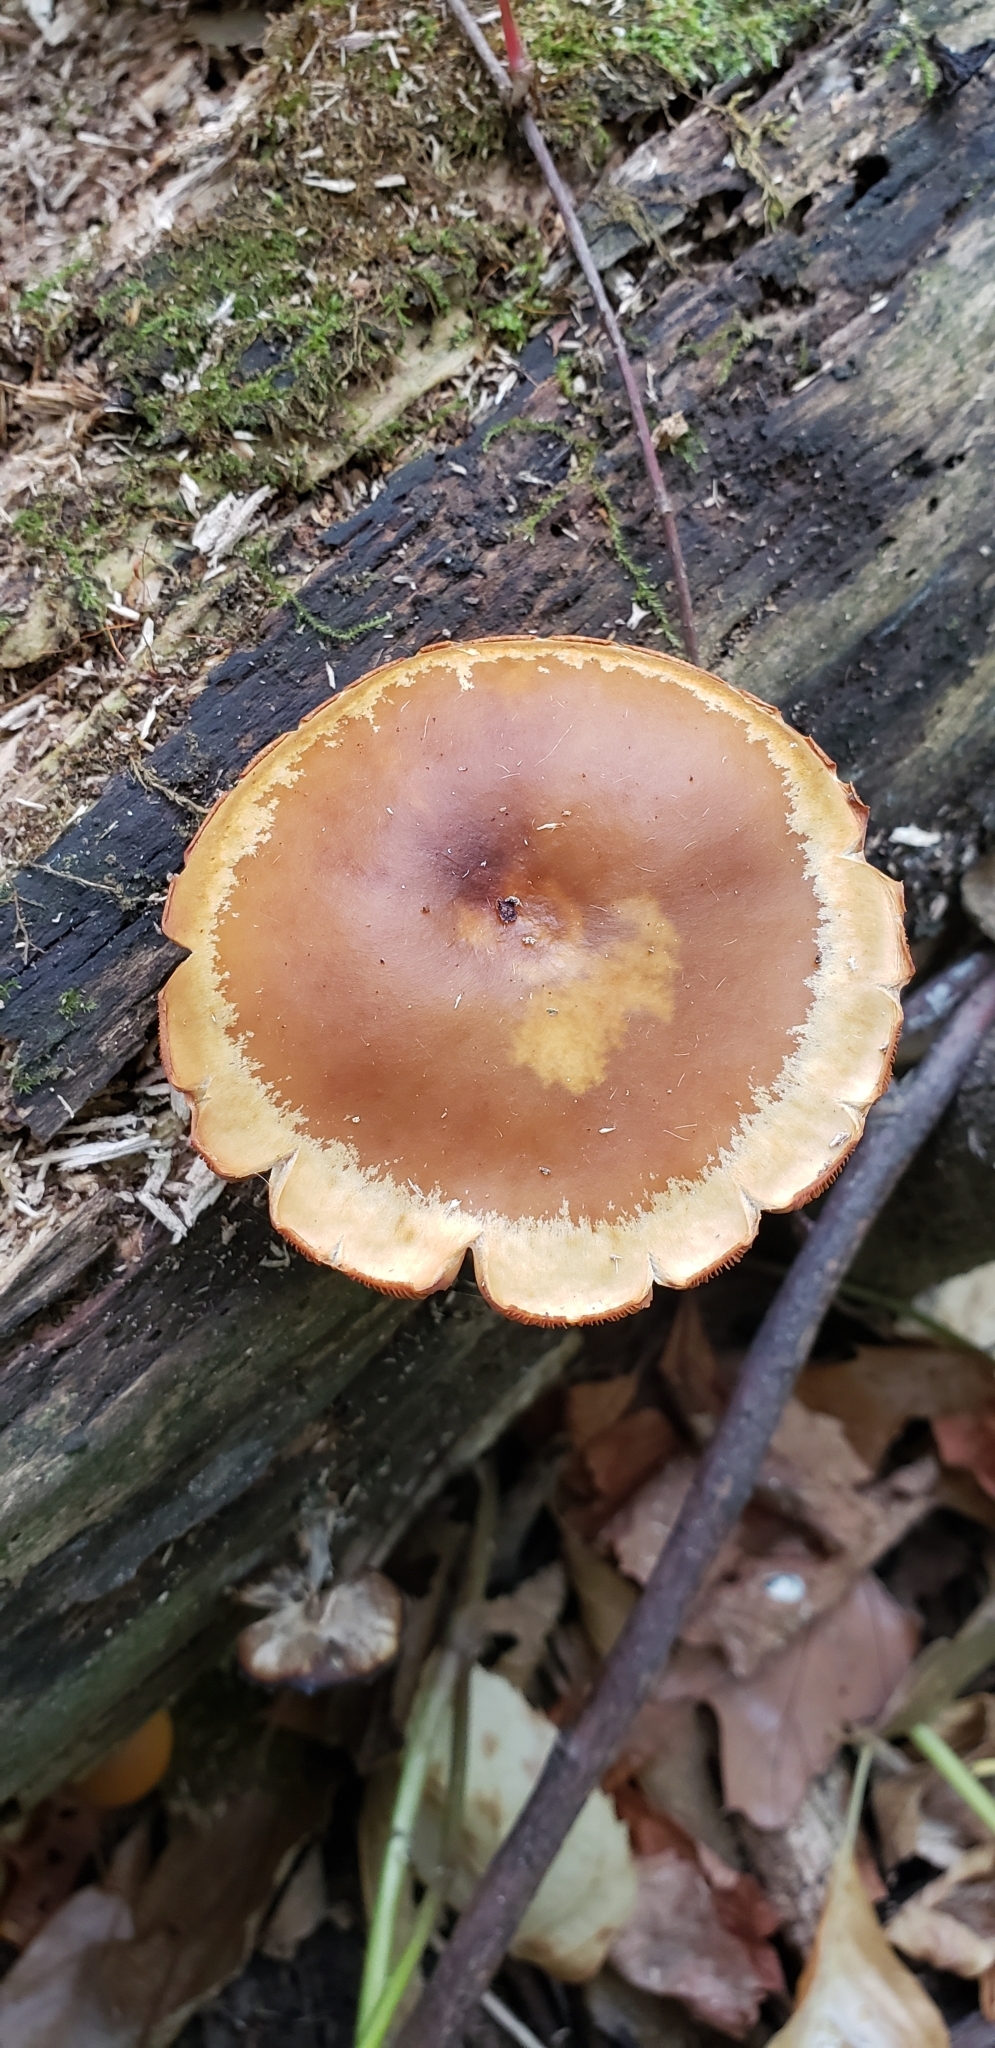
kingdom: Fungi
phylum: Basidiomycota
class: Agaricomycetes
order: Agaricales
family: Hymenogastraceae
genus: Galerina
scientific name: Galerina marginata
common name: Funeral bell
